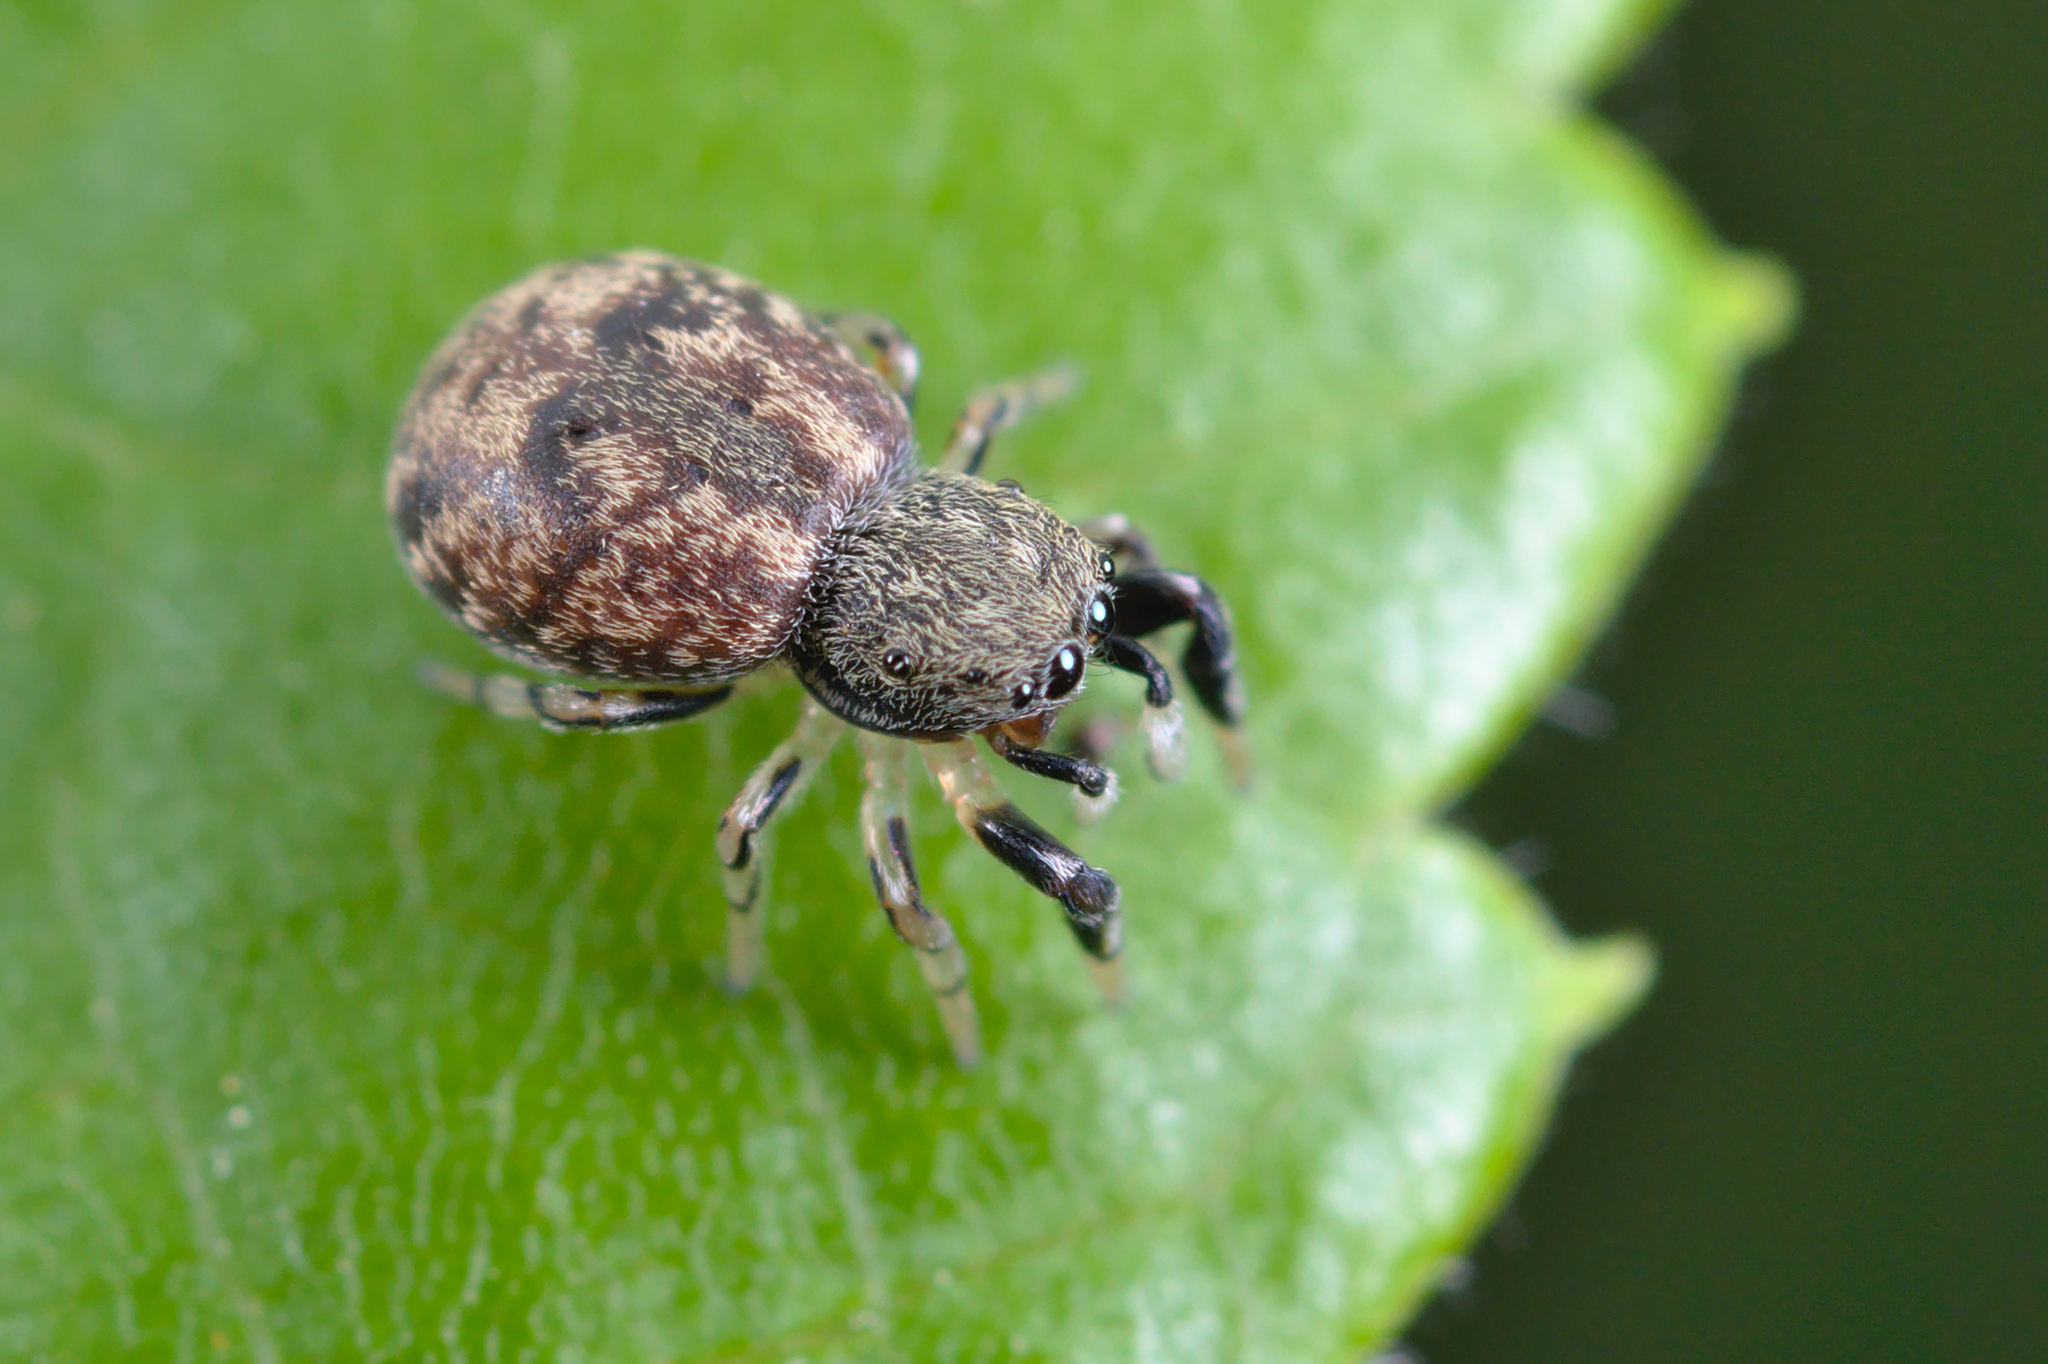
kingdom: Animalia
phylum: Arthropoda
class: Arachnida
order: Araneae
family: Salticidae
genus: Ballus
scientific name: Ballus chalybeius
